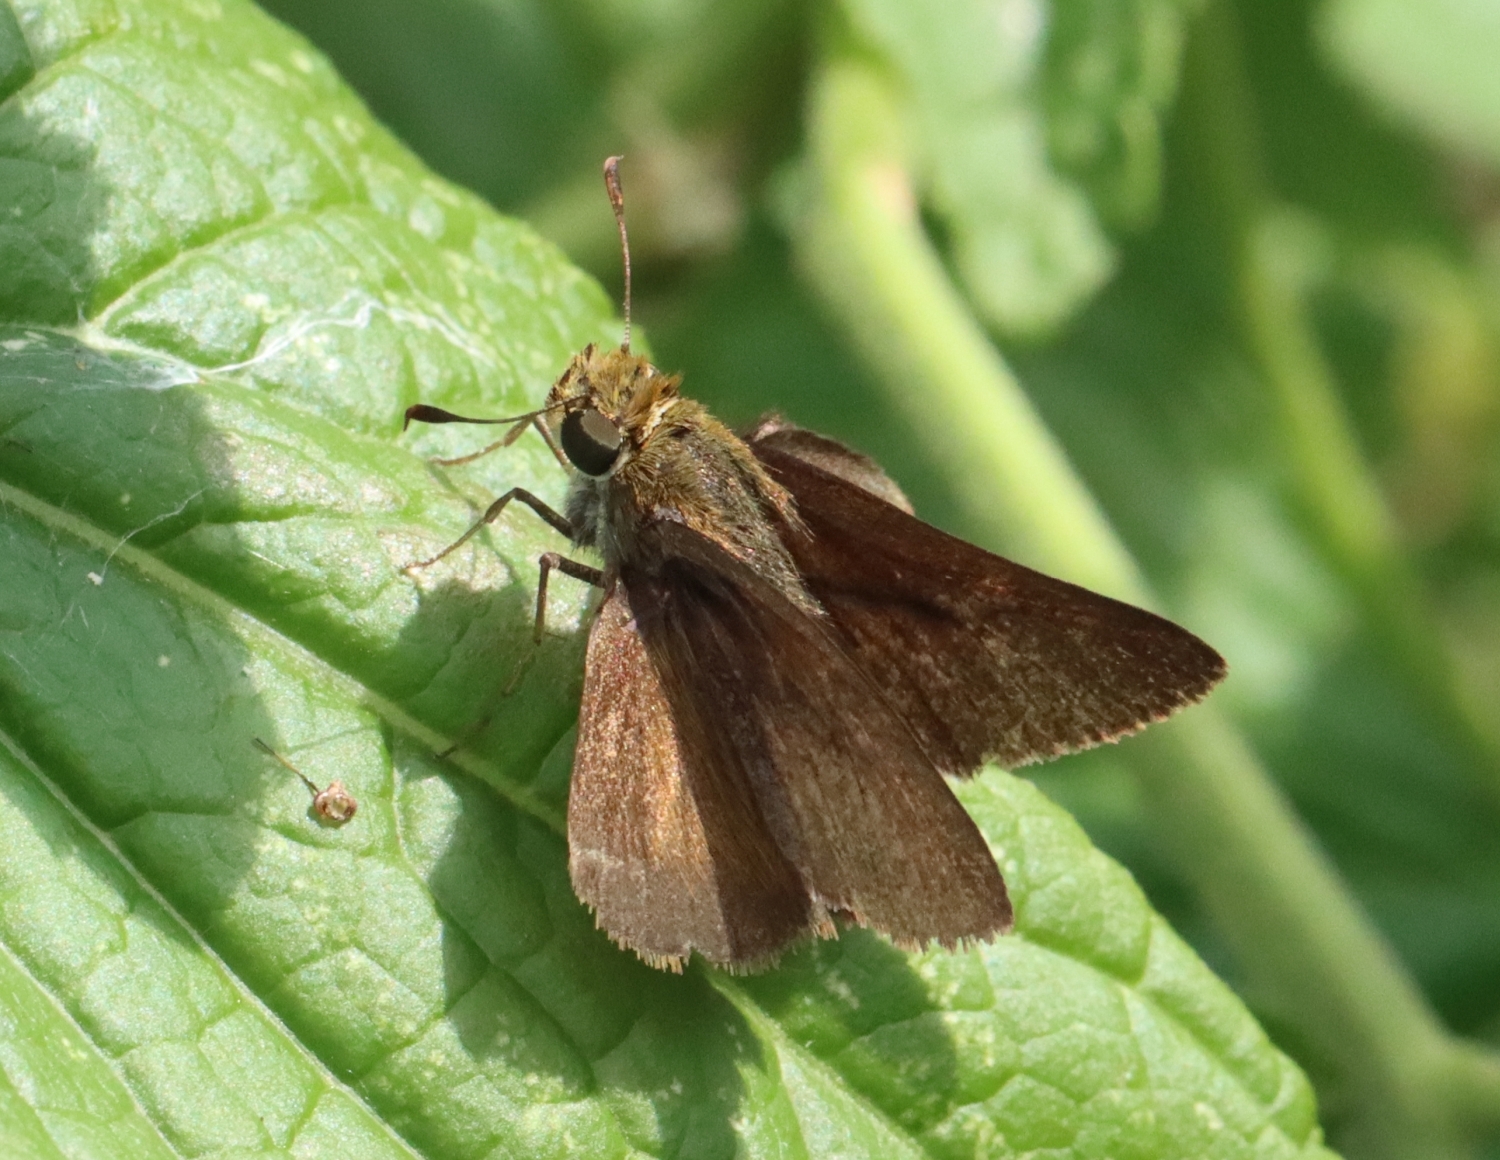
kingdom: Animalia
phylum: Arthropoda
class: Insecta
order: Lepidoptera
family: Hesperiidae
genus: Euphyes
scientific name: Euphyes vestris
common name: Dun skipper
